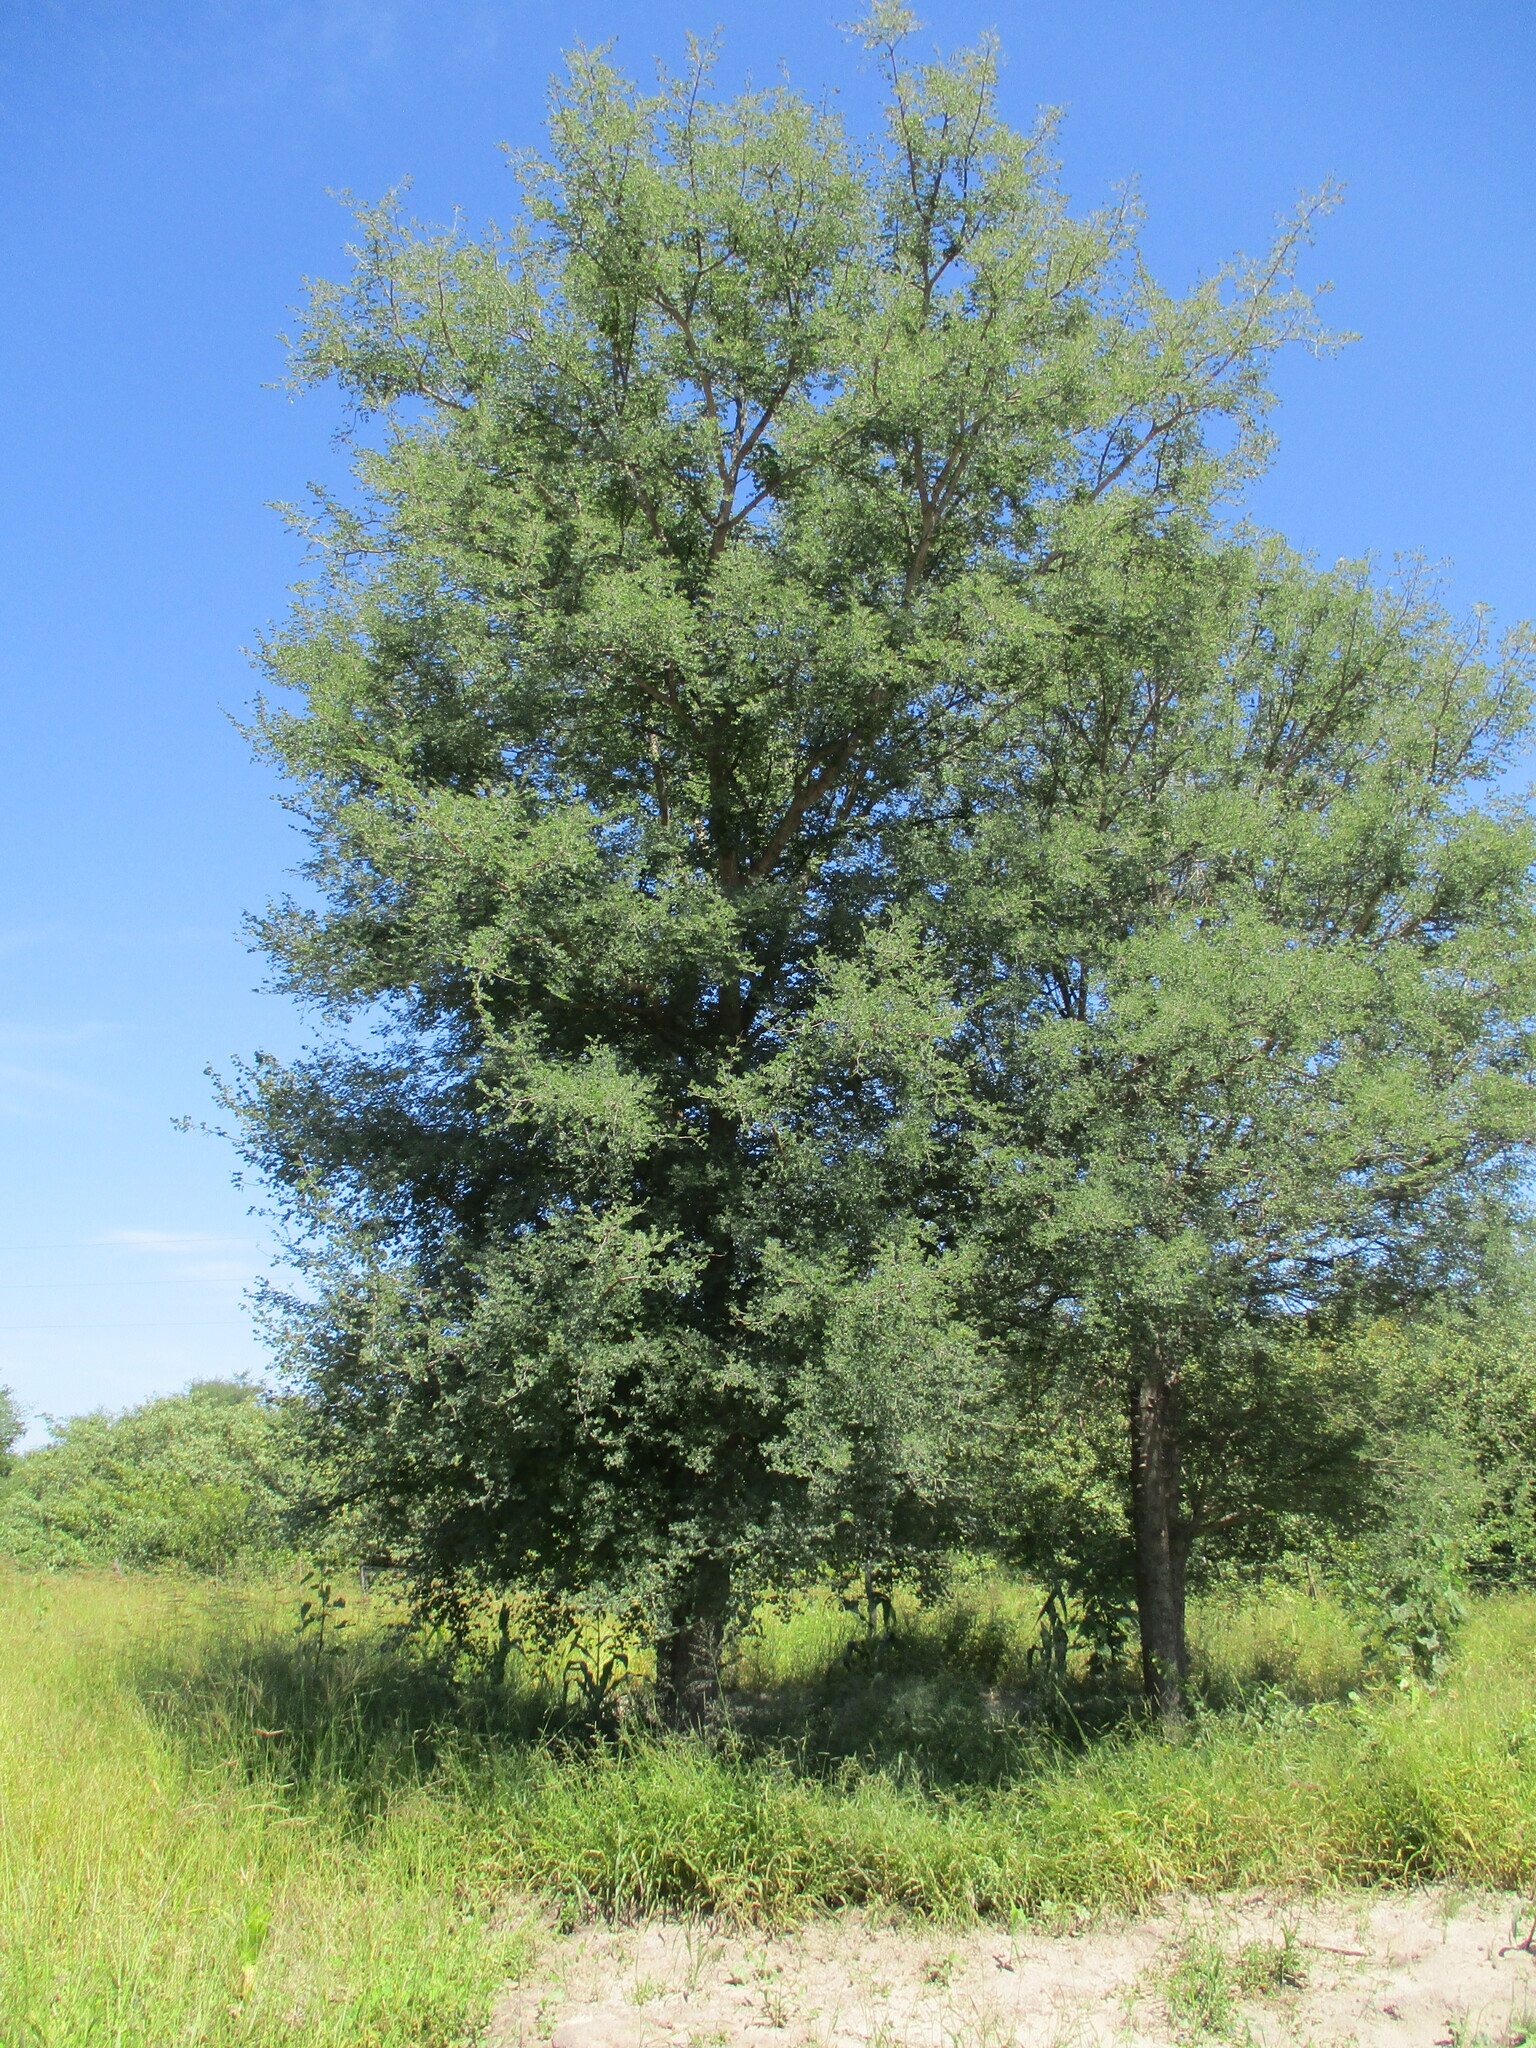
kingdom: Plantae
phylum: Tracheophyta
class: Magnoliopsida
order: Fabales
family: Fabaceae
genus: Senegalia
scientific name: Senegalia nigrescens
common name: Knobthorn
